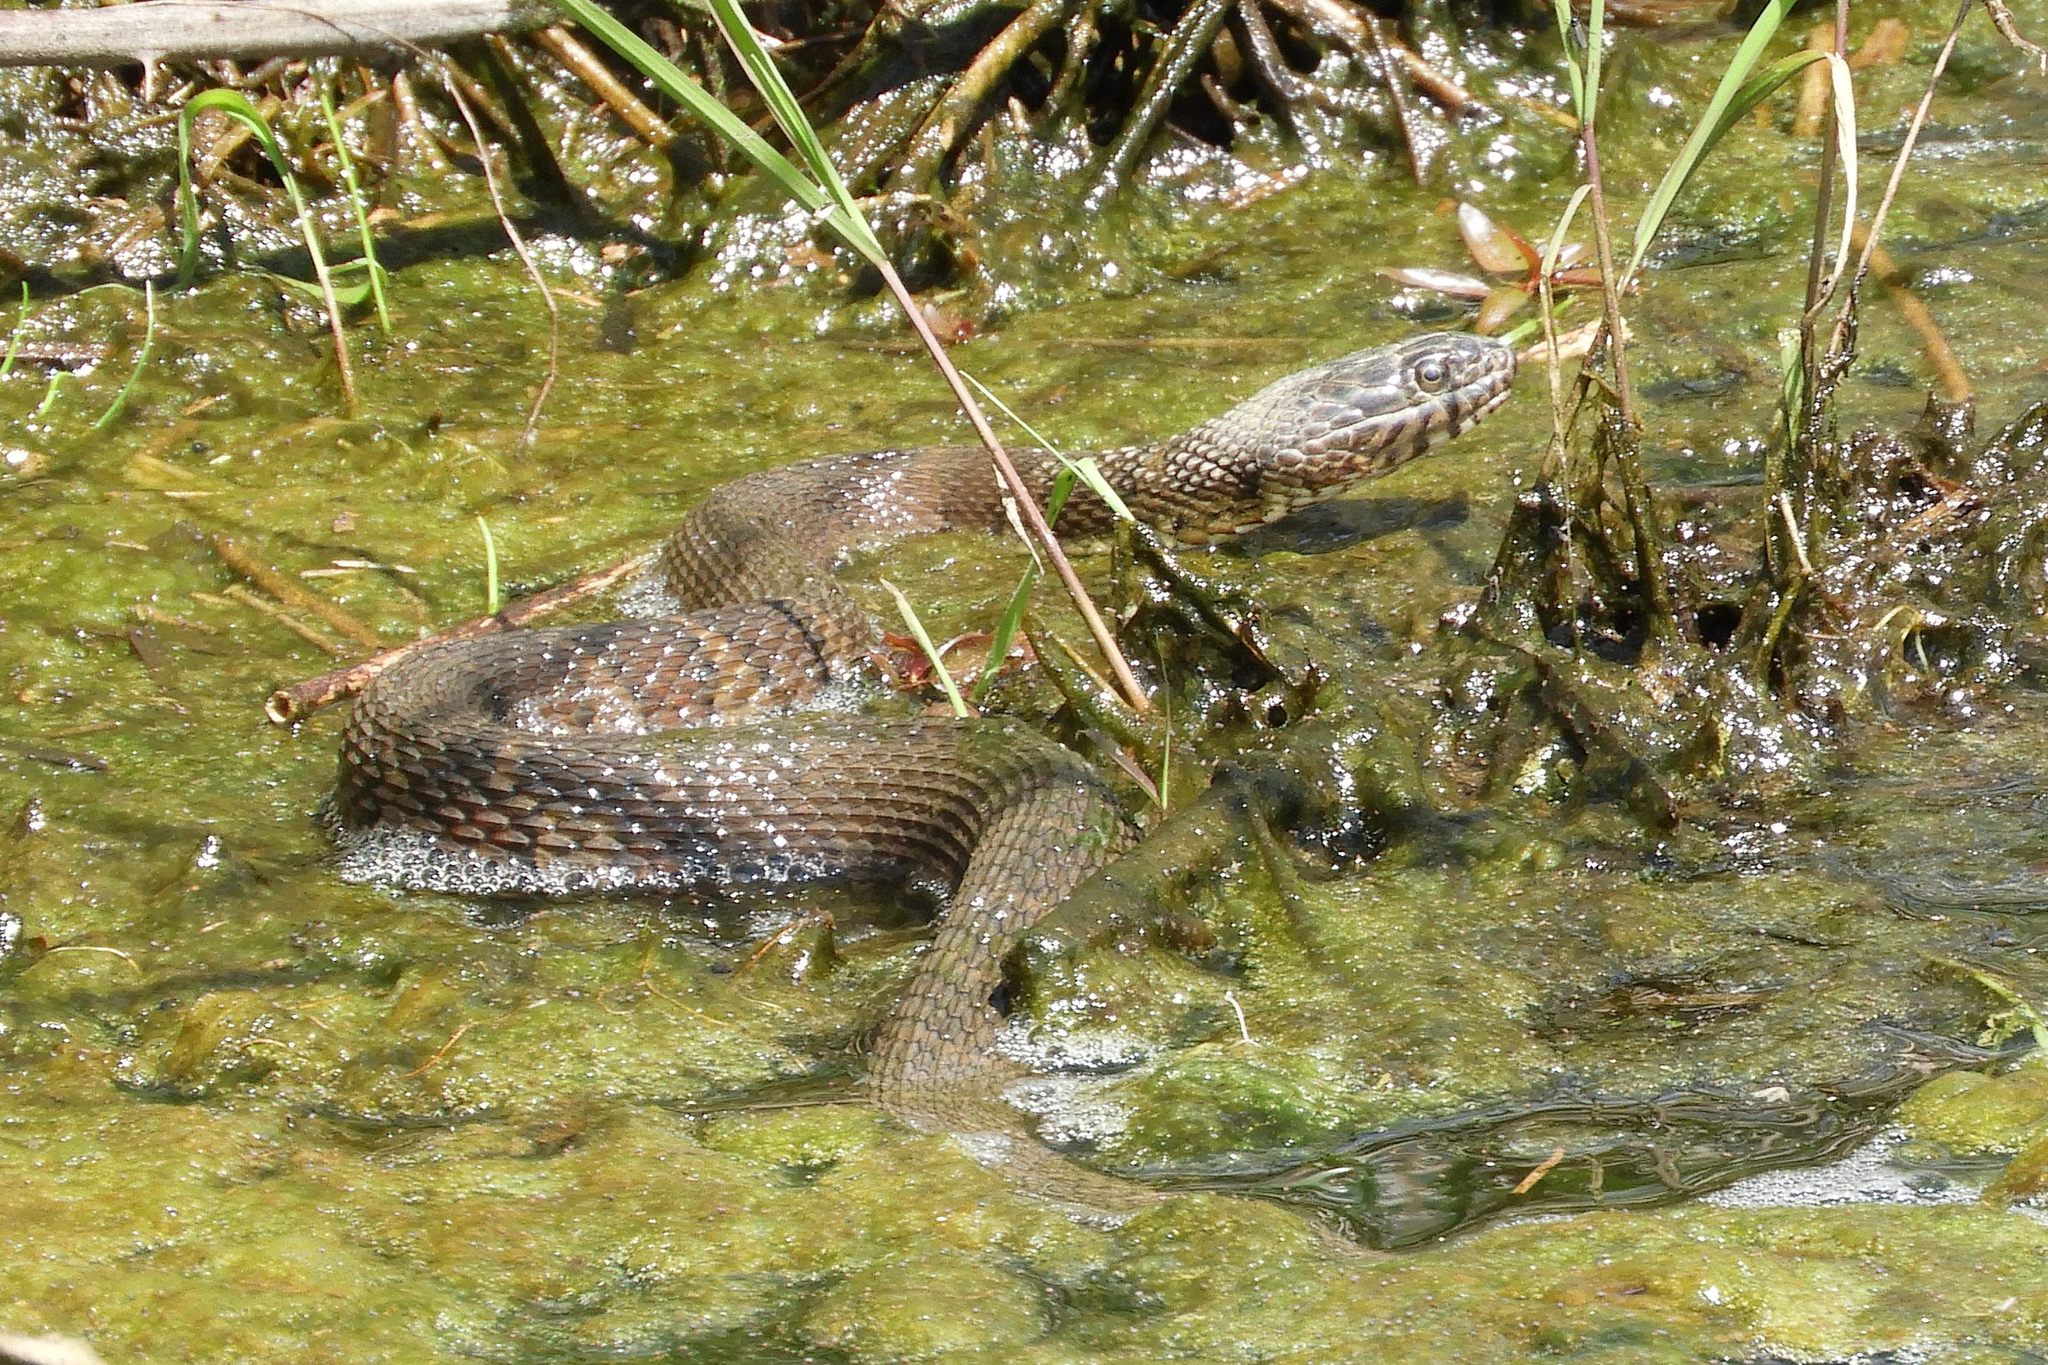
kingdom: Animalia
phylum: Chordata
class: Squamata
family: Colubridae
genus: Nerodia
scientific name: Nerodia sipedon
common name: Northern water snake
